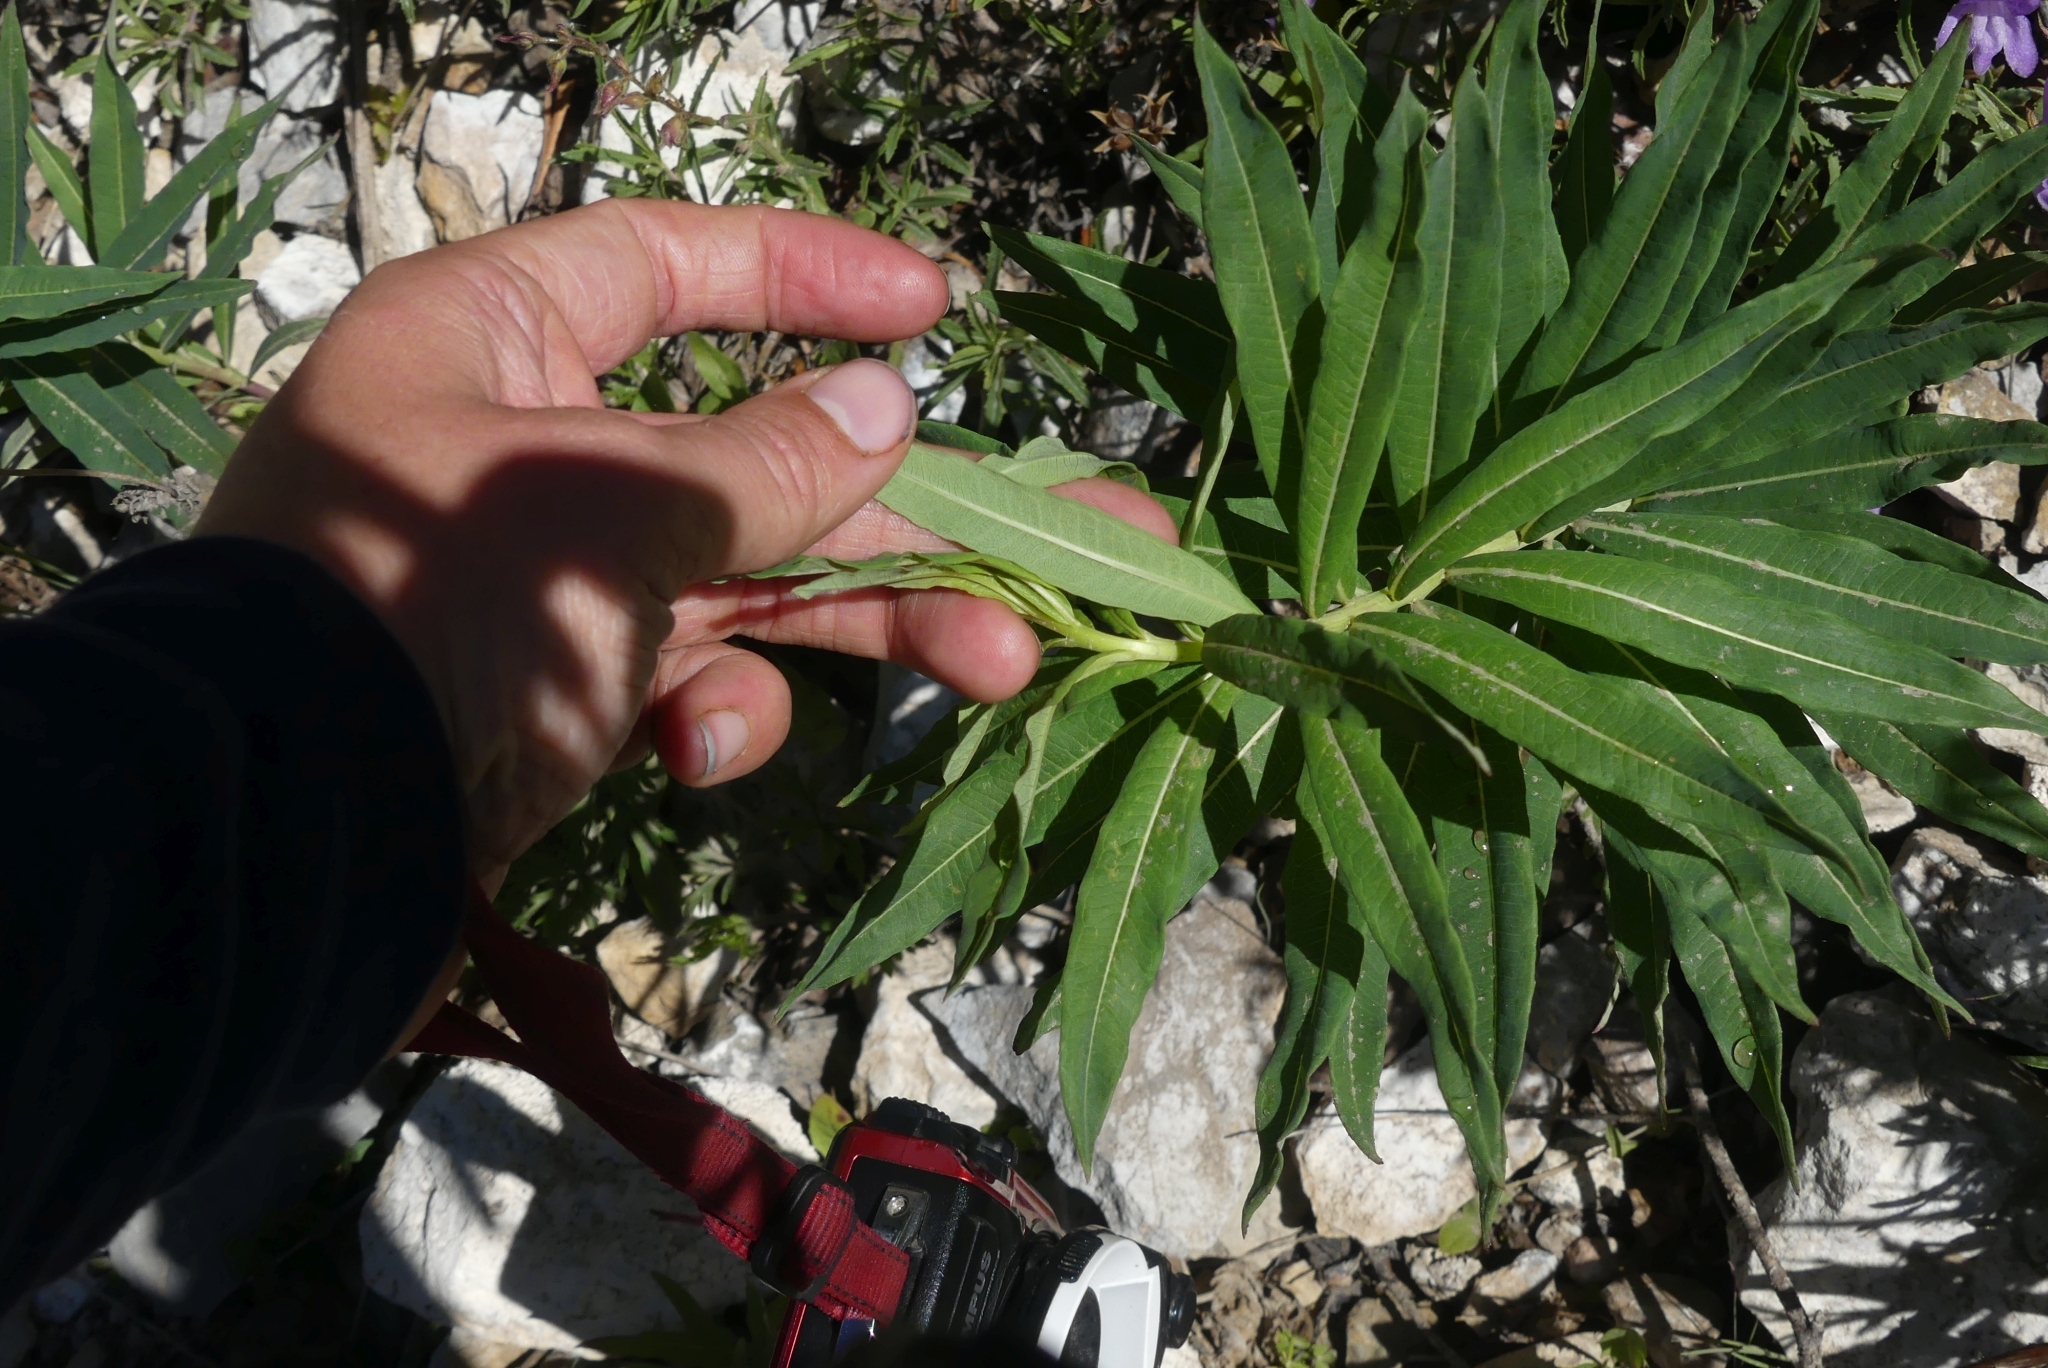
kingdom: Plantae
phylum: Tracheophyta
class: Magnoliopsida
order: Myrtales
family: Onagraceae
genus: Chamaenerion
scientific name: Chamaenerion angustifolium
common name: Fireweed
